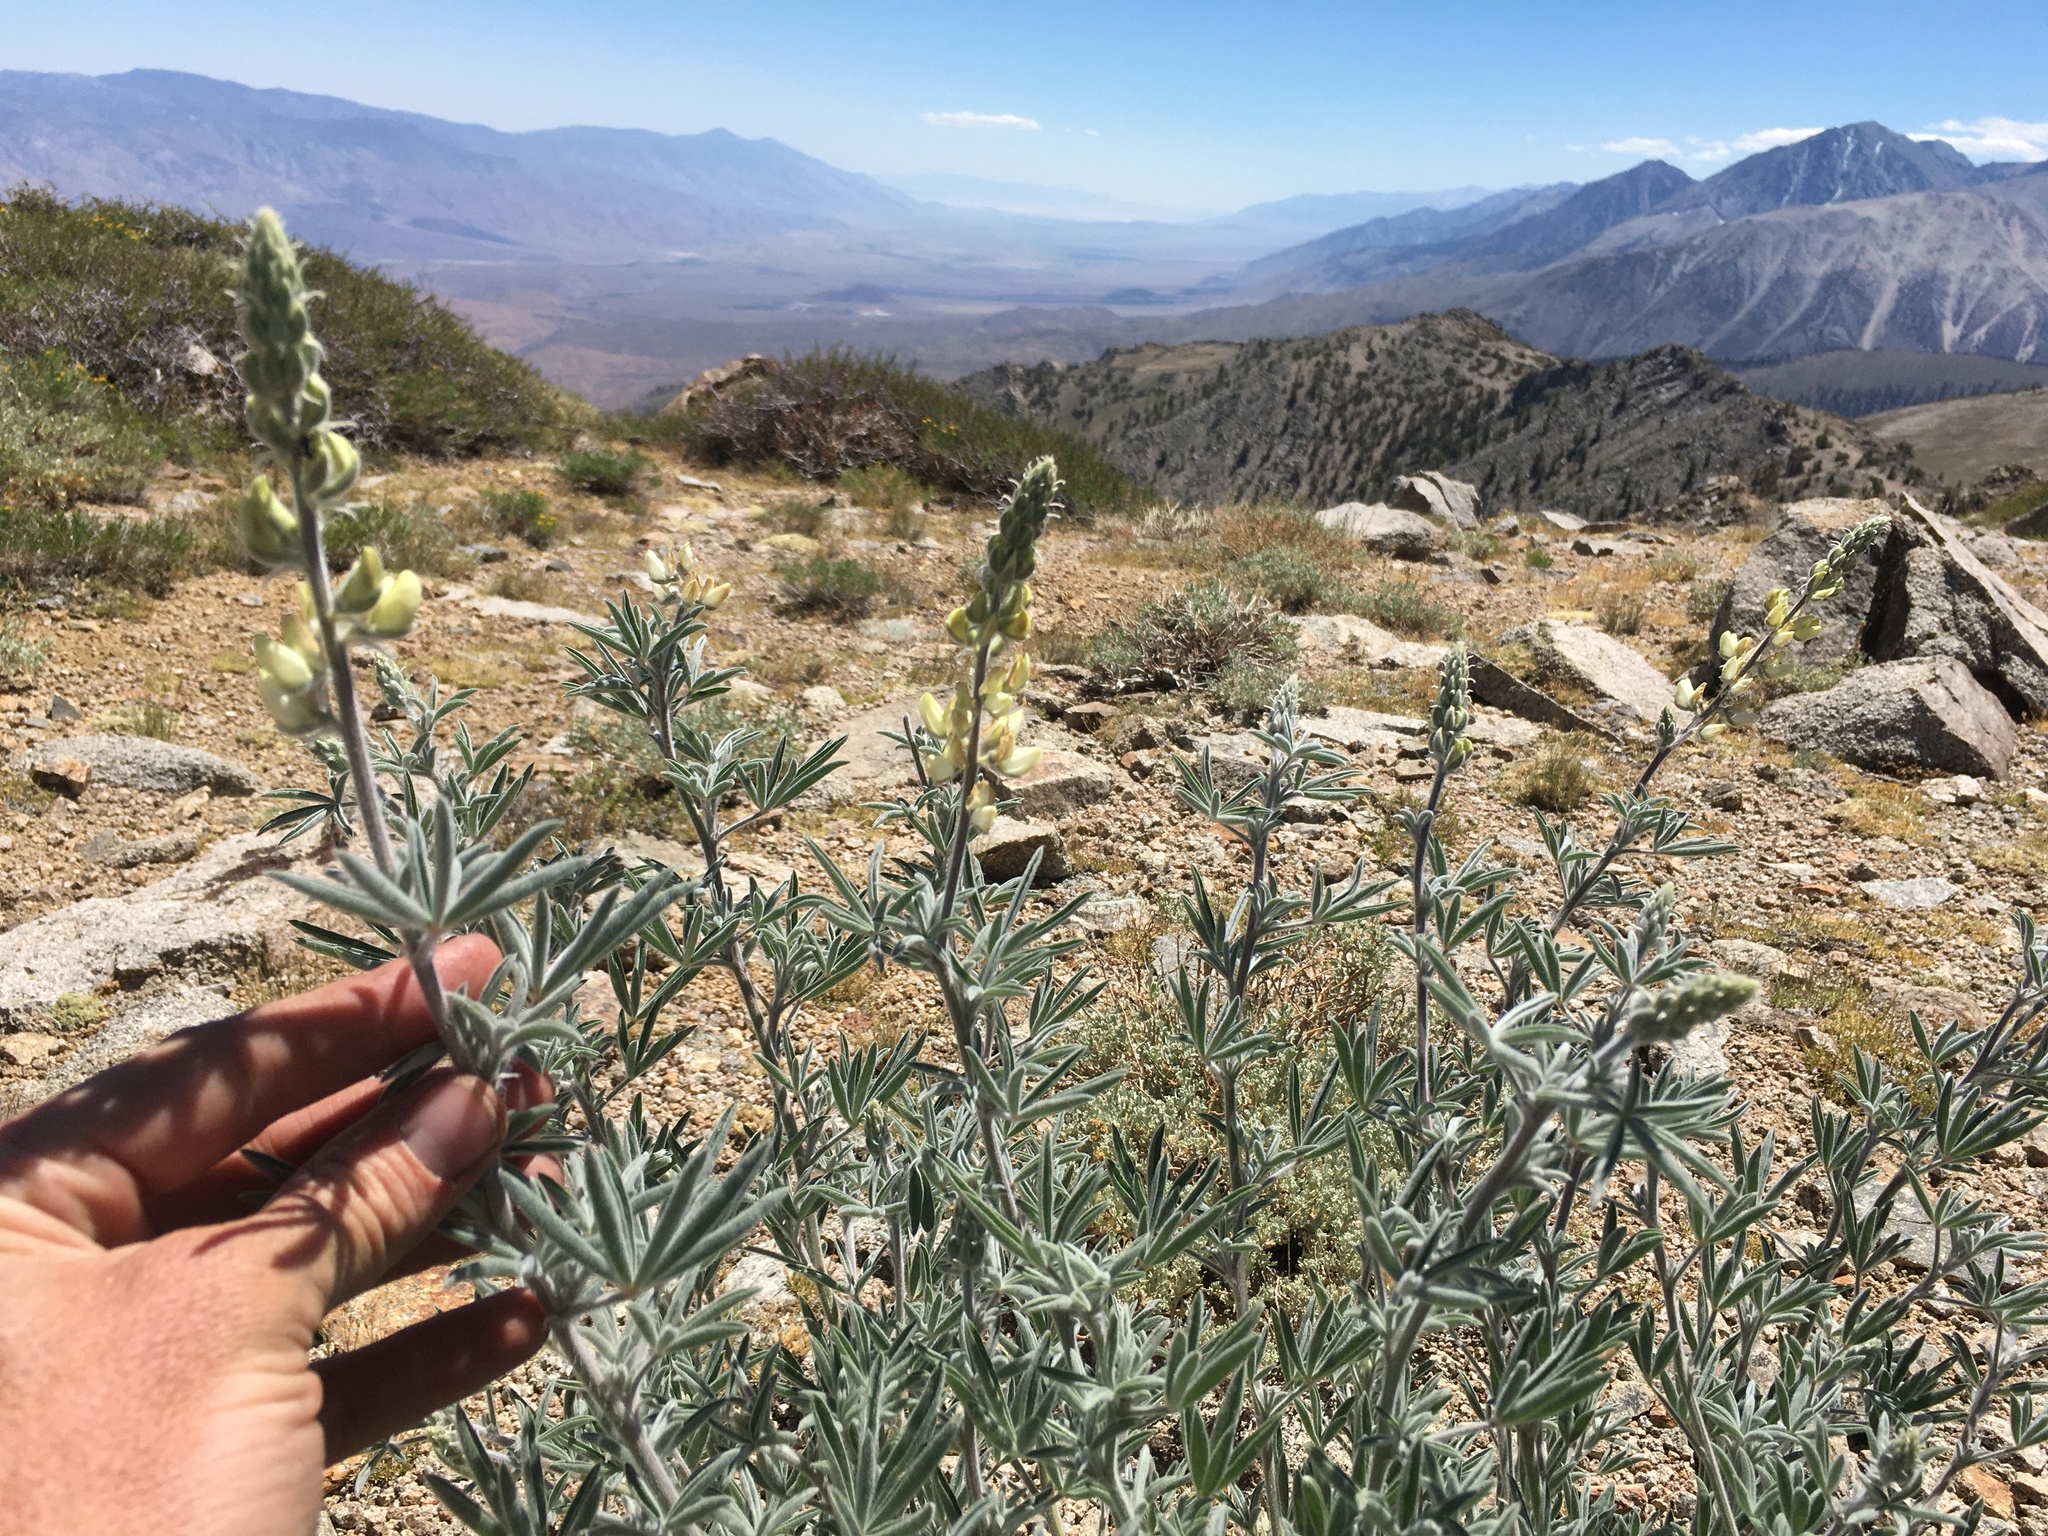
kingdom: Plantae
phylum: Tracheophyta
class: Magnoliopsida
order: Fabales
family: Fabaceae
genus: Lupinus
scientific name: Lupinus padre-crowleyi
